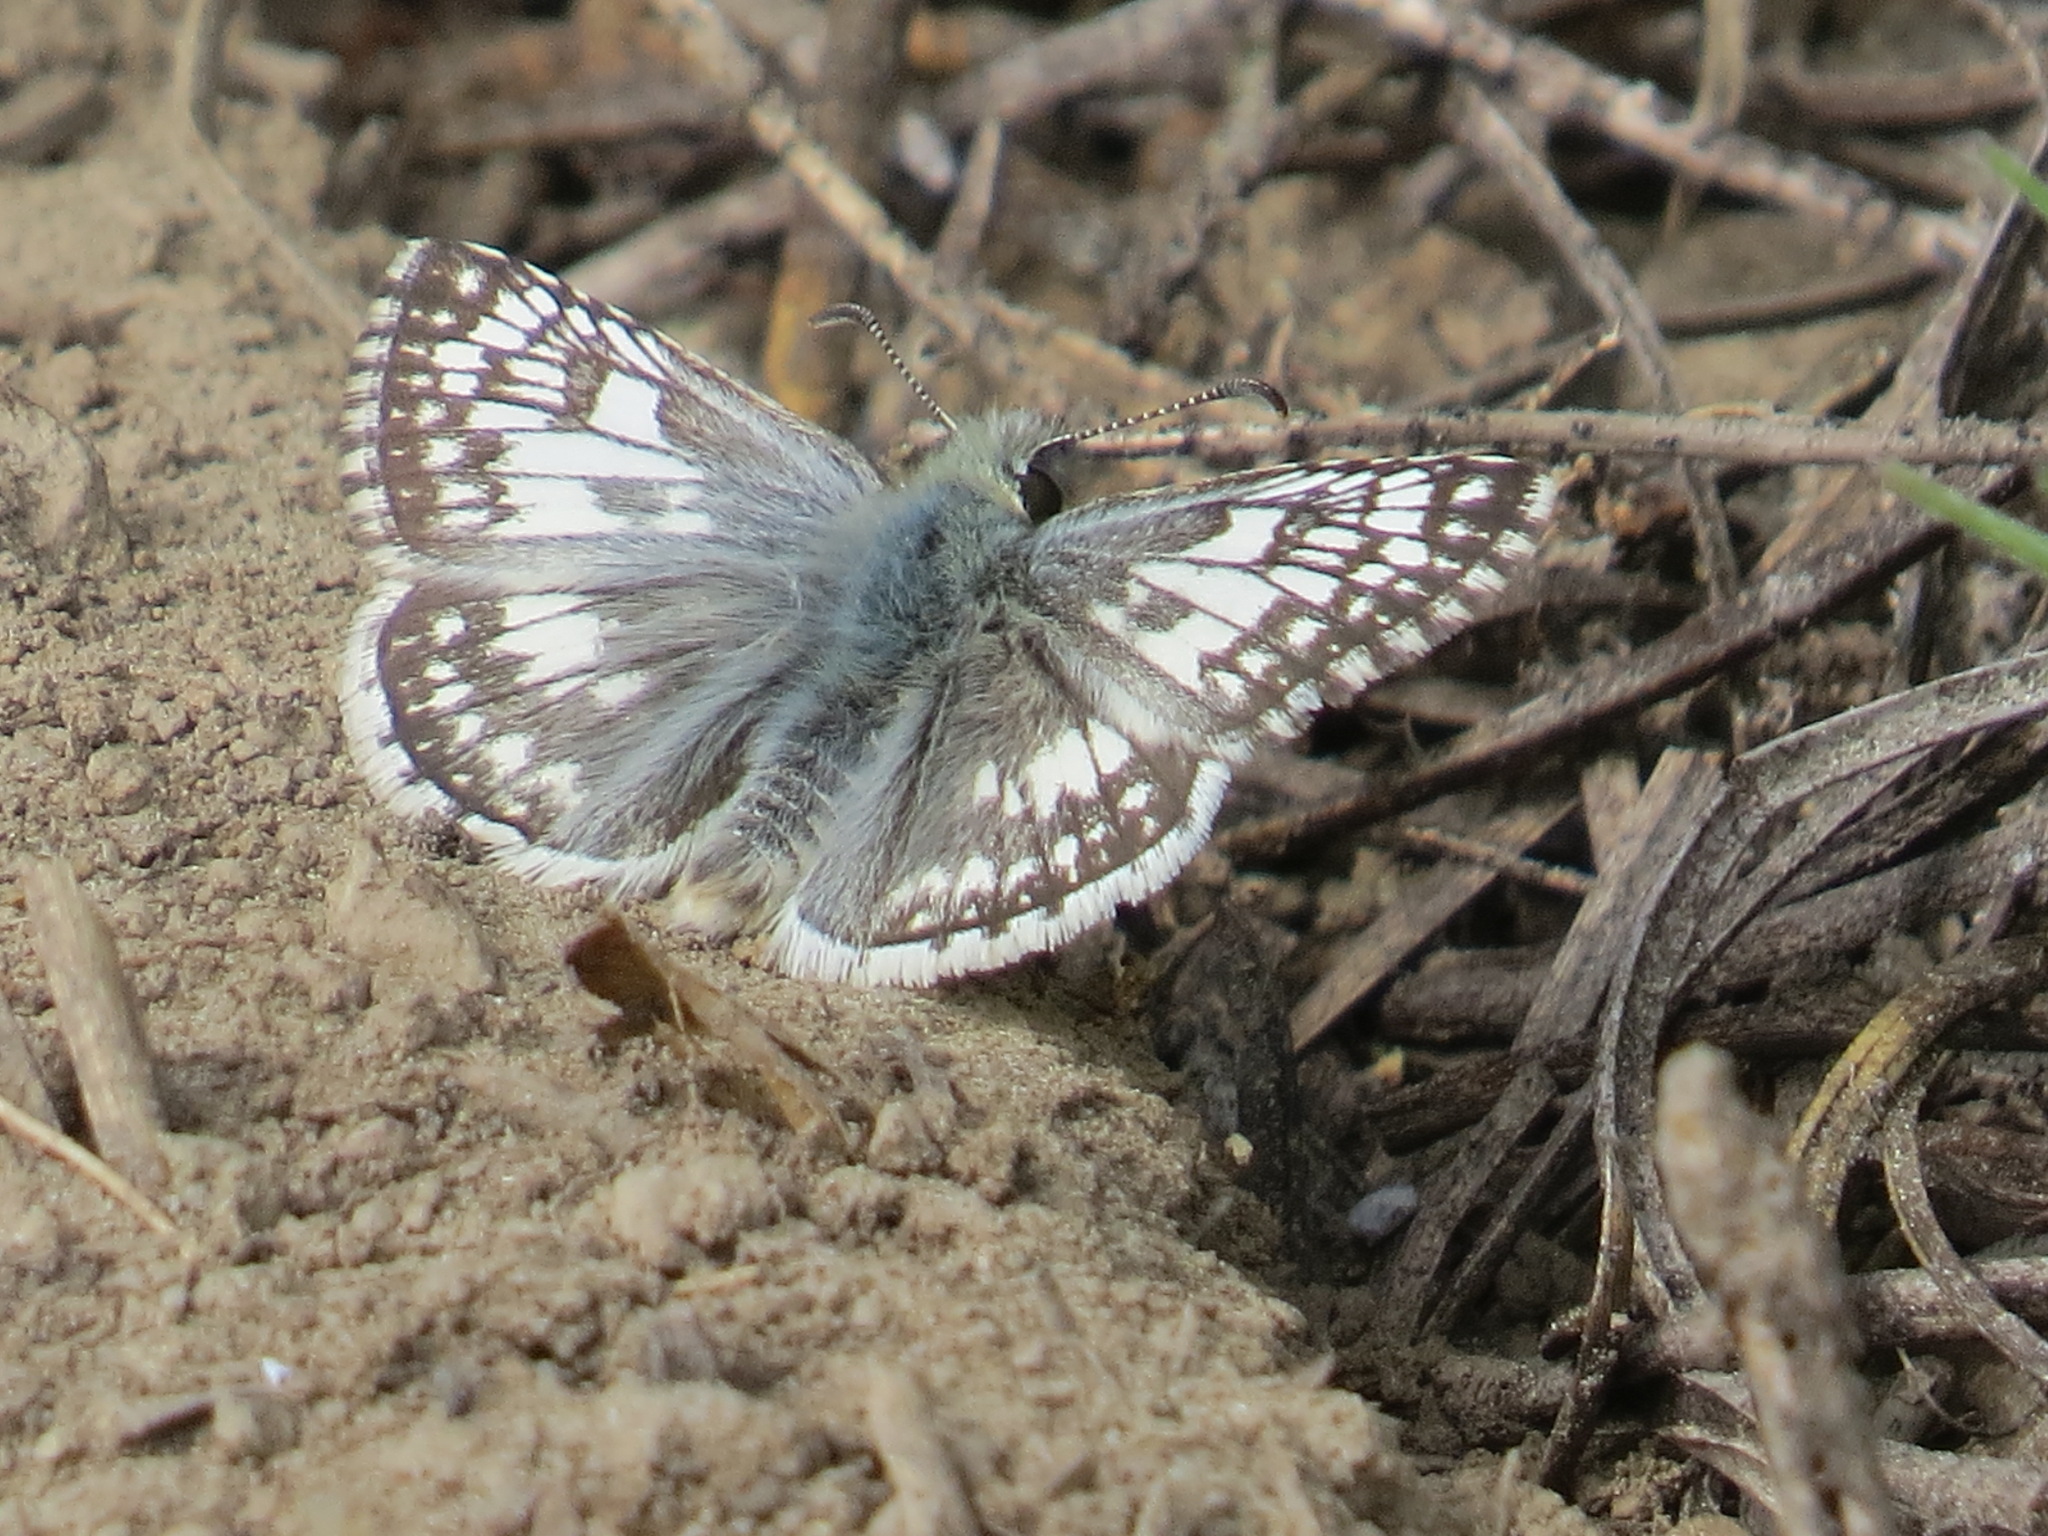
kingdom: Animalia
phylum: Arthropoda
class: Insecta
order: Lepidoptera
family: Hesperiidae
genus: Burnsius
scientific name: Burnsius communis
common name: Common checkered-skipper
